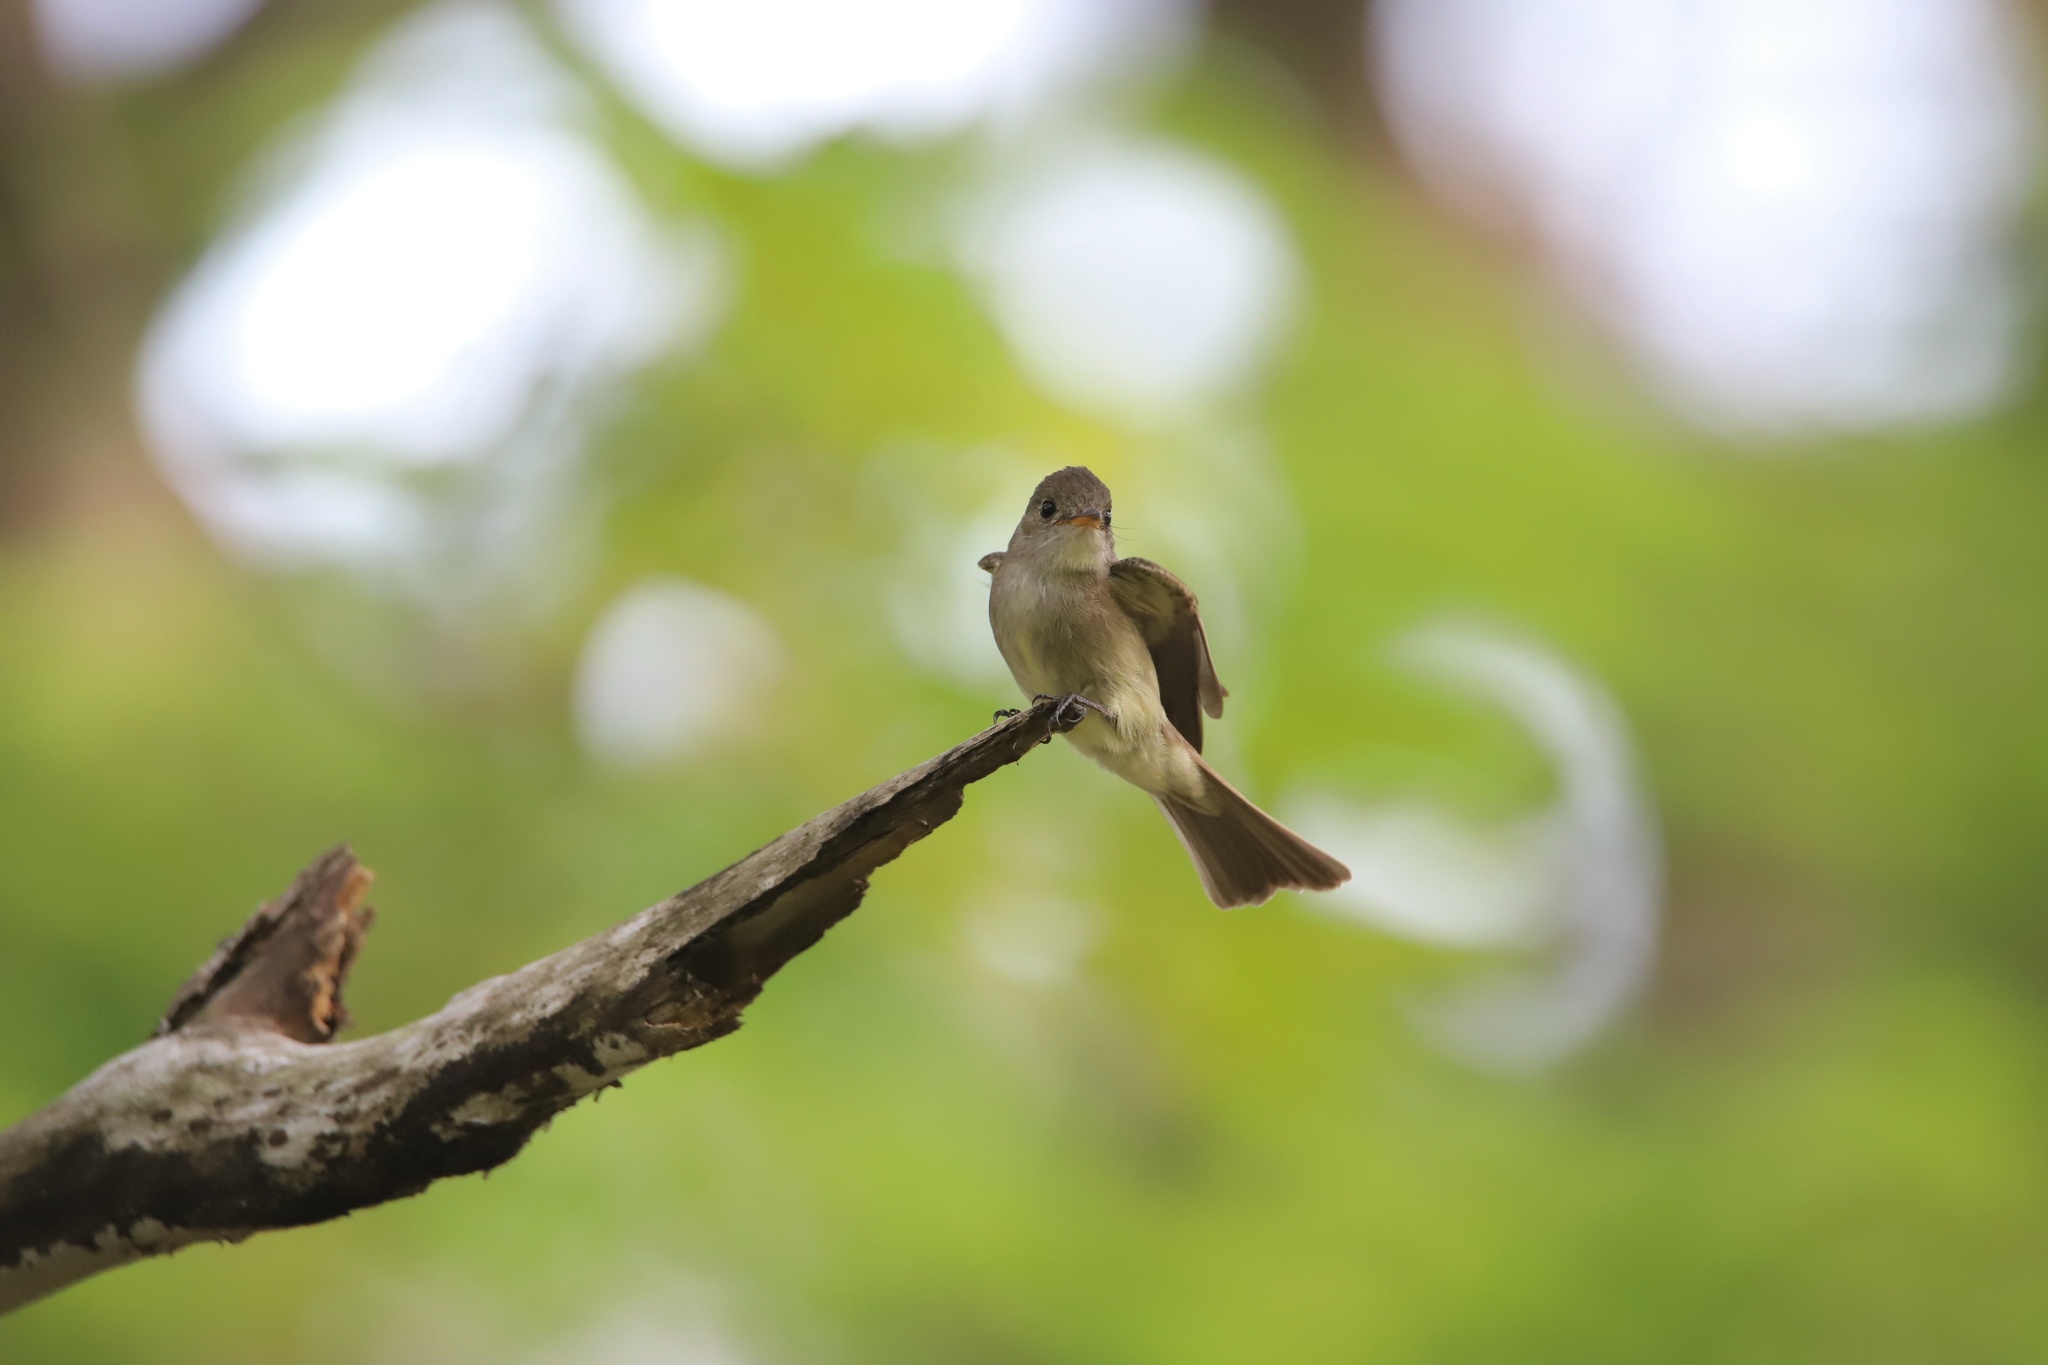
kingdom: Animalia
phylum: Chordata
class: Aves
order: Passeriformes
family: Tyrannidae
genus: Contopus
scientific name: Contopus cinereus
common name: Tropical pewee
